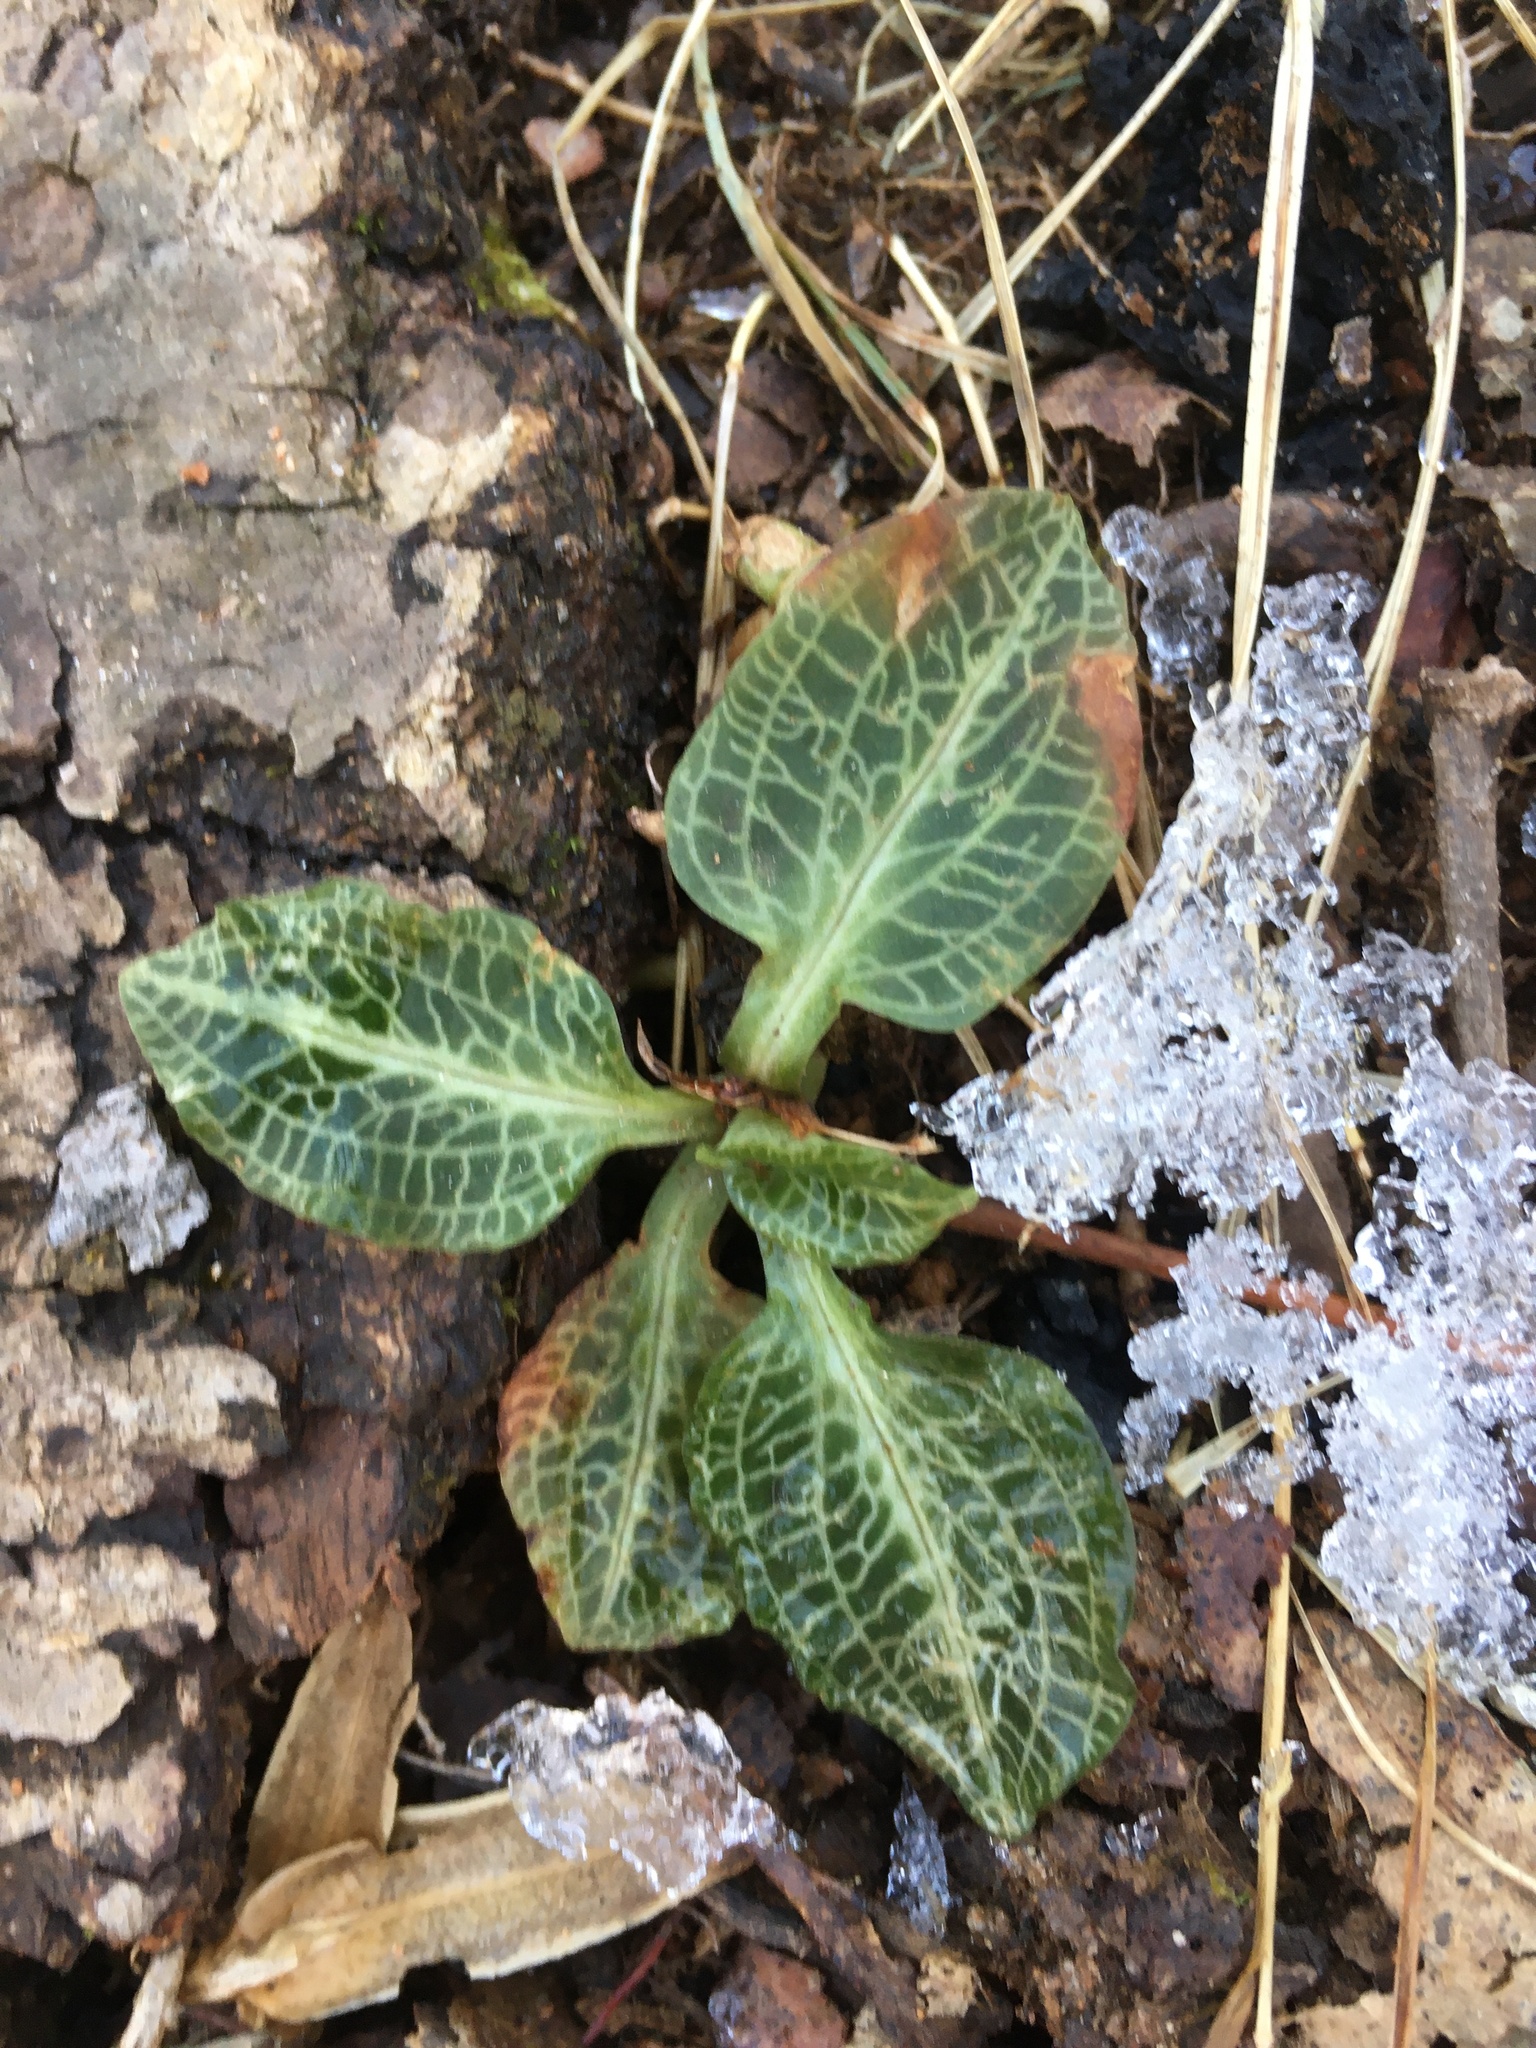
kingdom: Plantae
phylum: Tracheophyta
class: Liliopsida
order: Asparagales
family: Orchidaceae
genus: Goodyera
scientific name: Goodyera pubescens
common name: Downy rattlesnake-plantain
